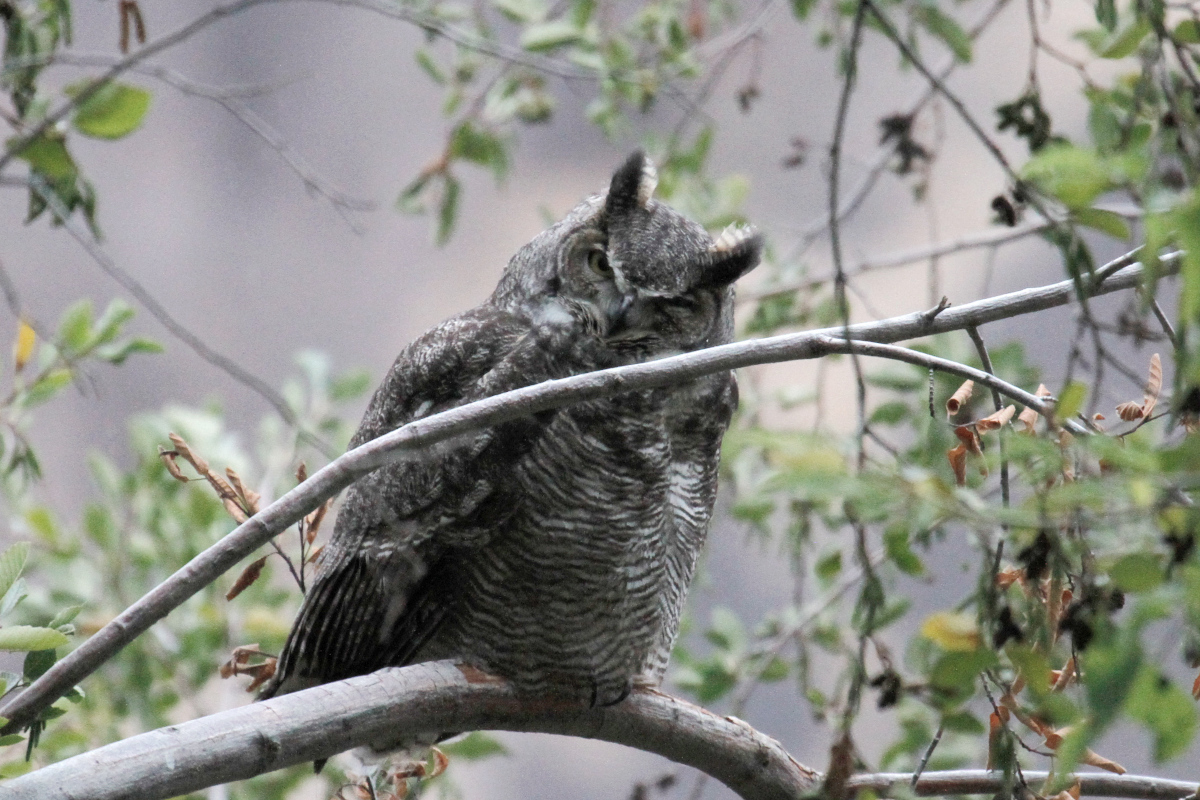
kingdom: Animalia
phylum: Chordata
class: Aves
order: Strigiformes
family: Strigidae
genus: Bubo
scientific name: Bubo virginianus
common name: Great horned owl
